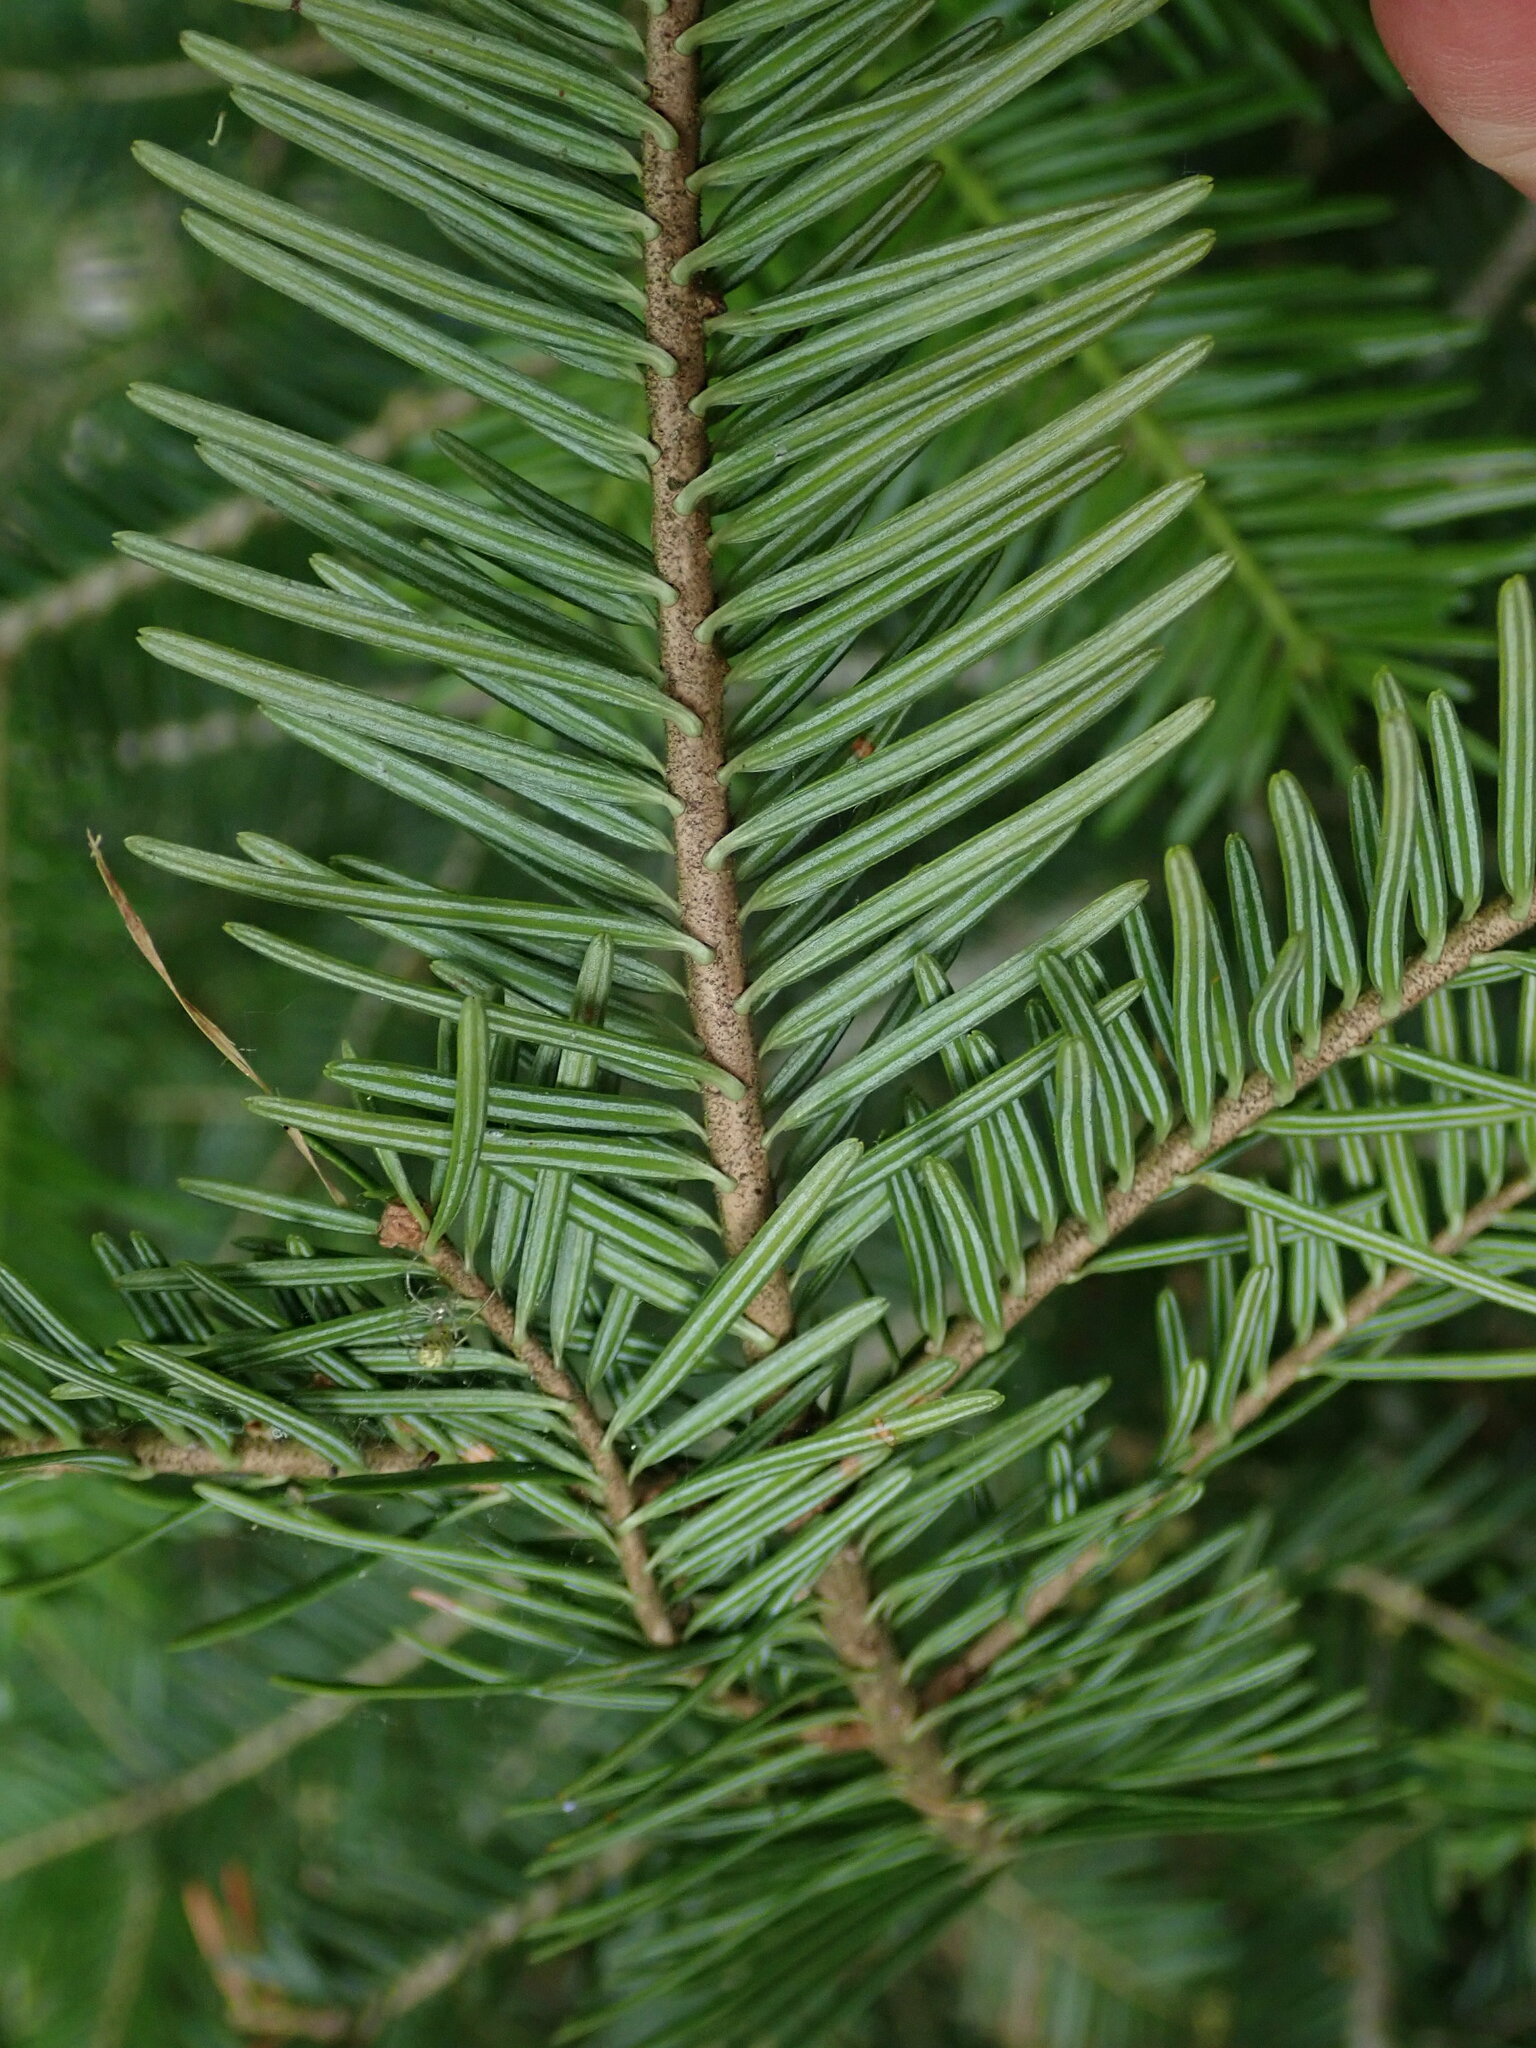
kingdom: Plantae
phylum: Tracheophyta
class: Pinopsida
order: Pinales
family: Pinaceae
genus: Abies
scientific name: Abies alba
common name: Silver fir
